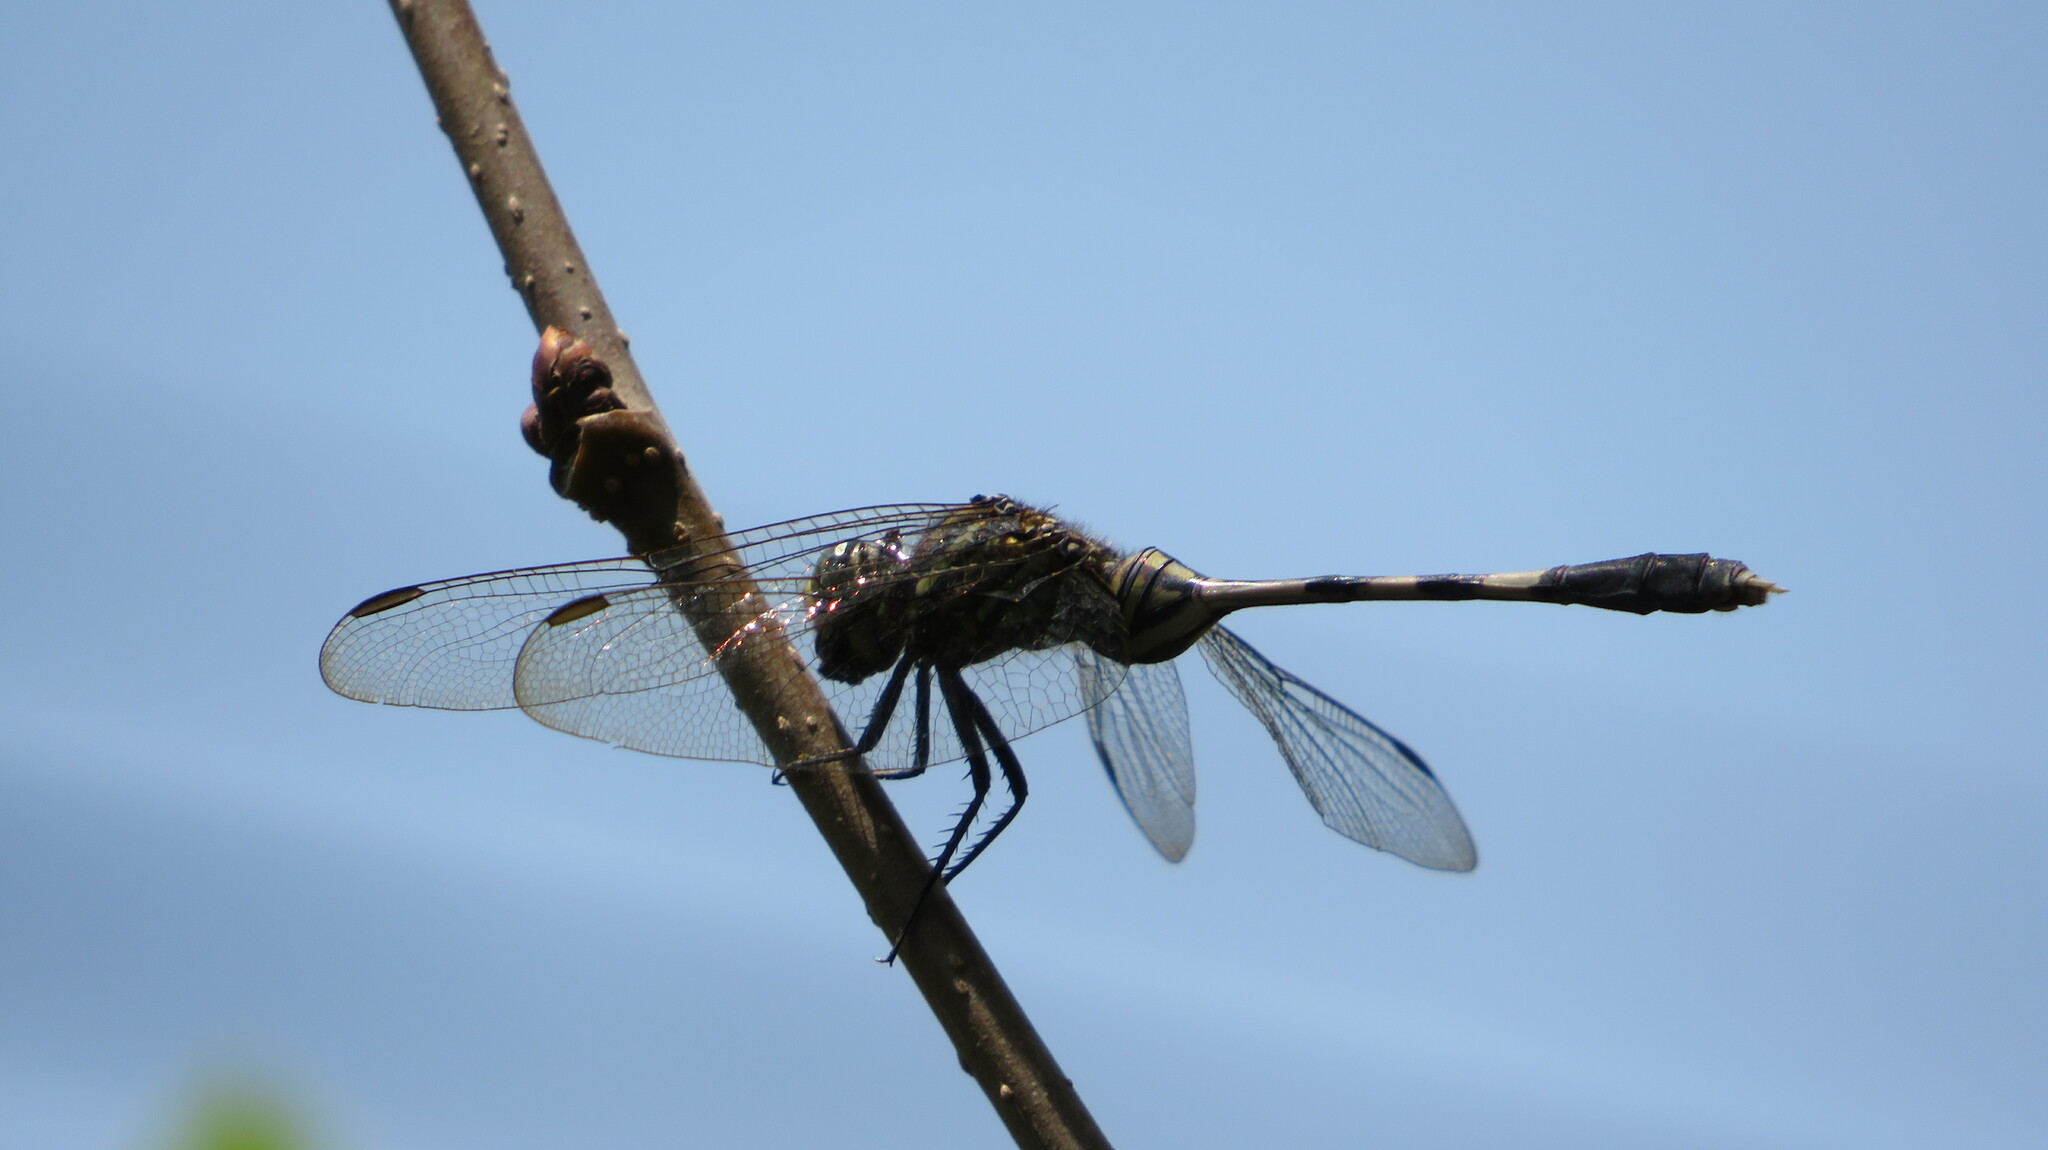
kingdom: Animalia
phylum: Arthropoda
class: Insecta
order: Odonata
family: Libellulidae
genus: Orthetrum
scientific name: Orthetrum sabina
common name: Slender skimmer
